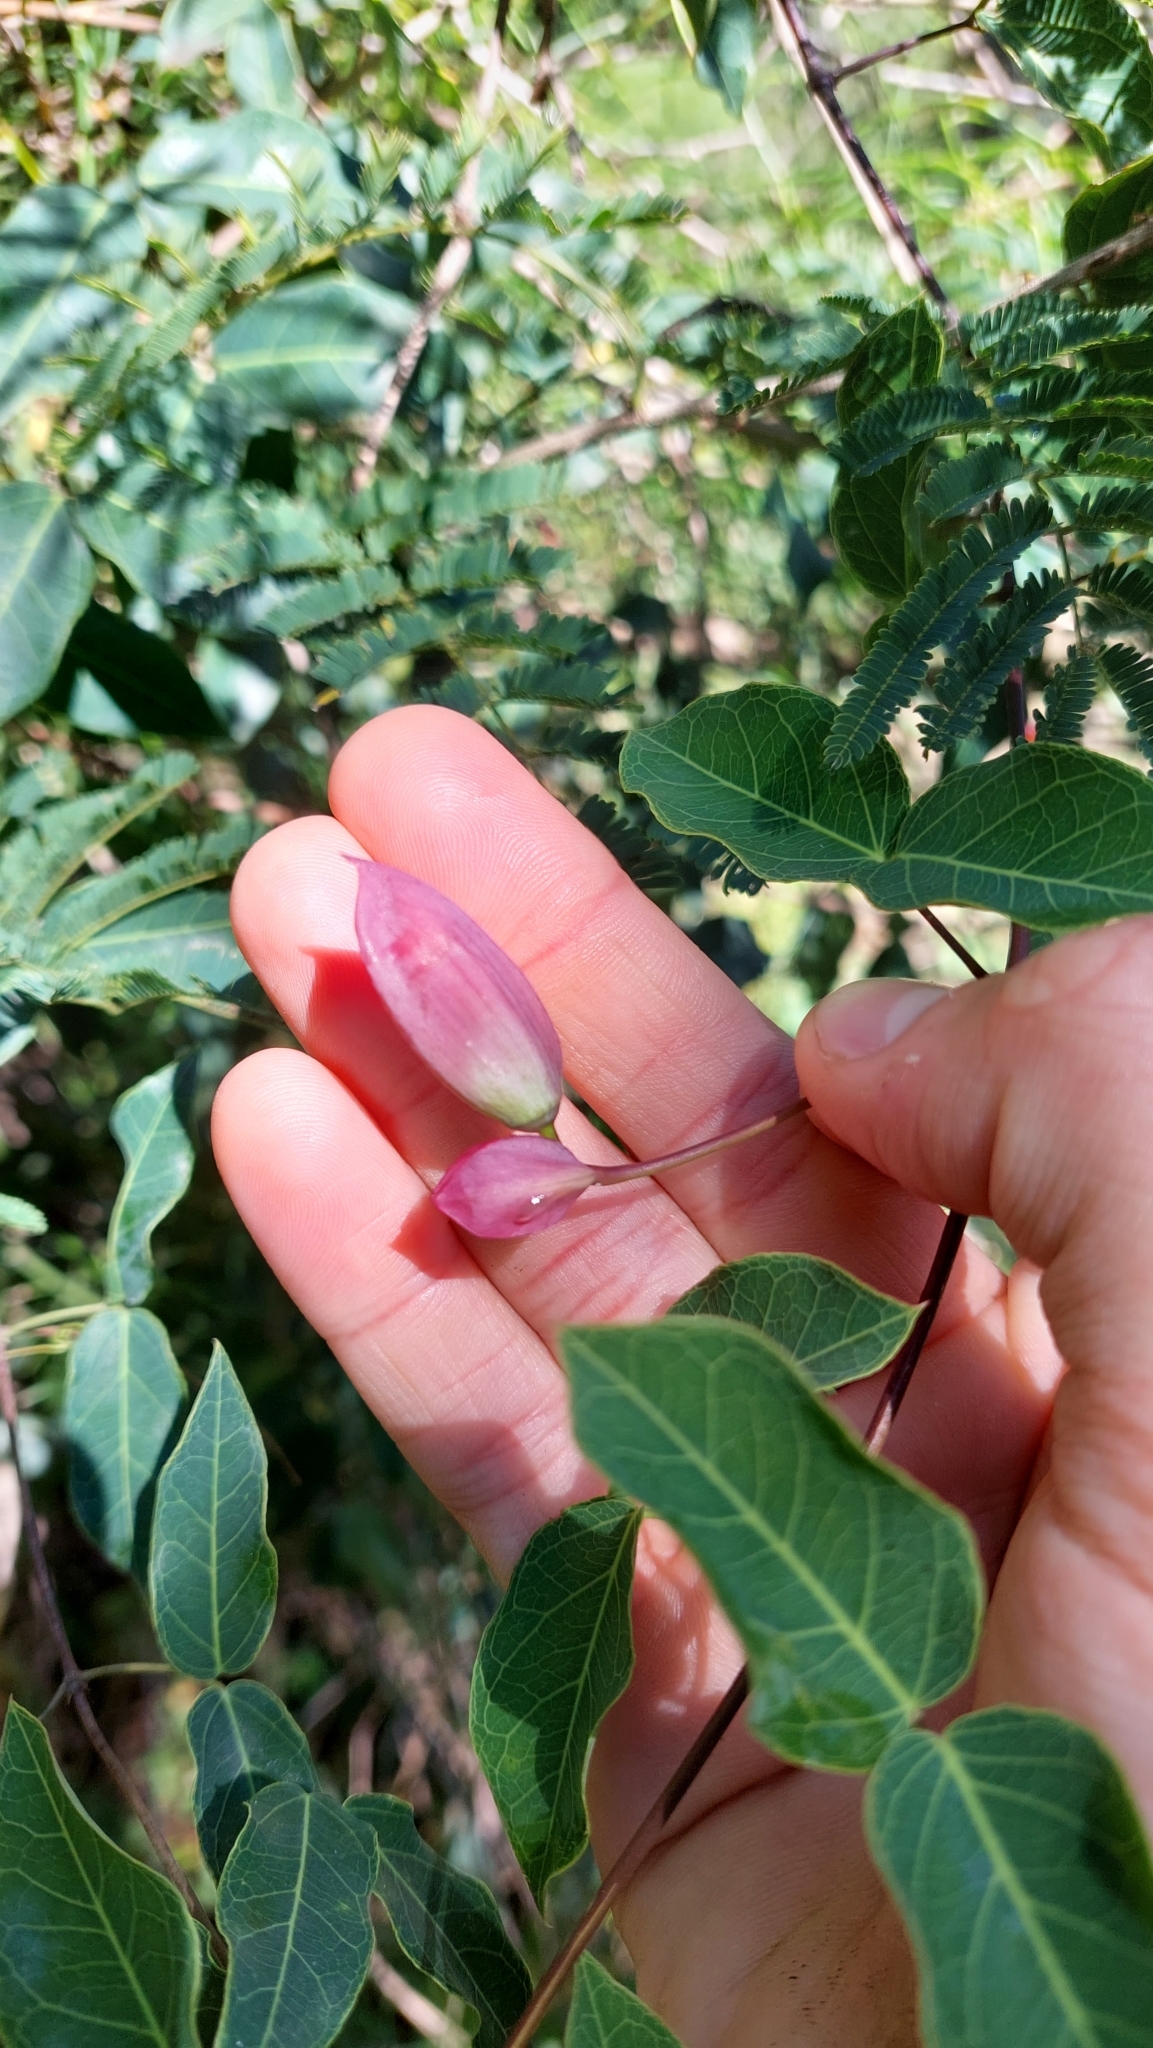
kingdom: Plantae
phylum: Tracheophyta
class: Magnoliopsida
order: Lamiales
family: Bignoniaceae
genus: Dolichandra
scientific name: Dolichandra cynanchoides
